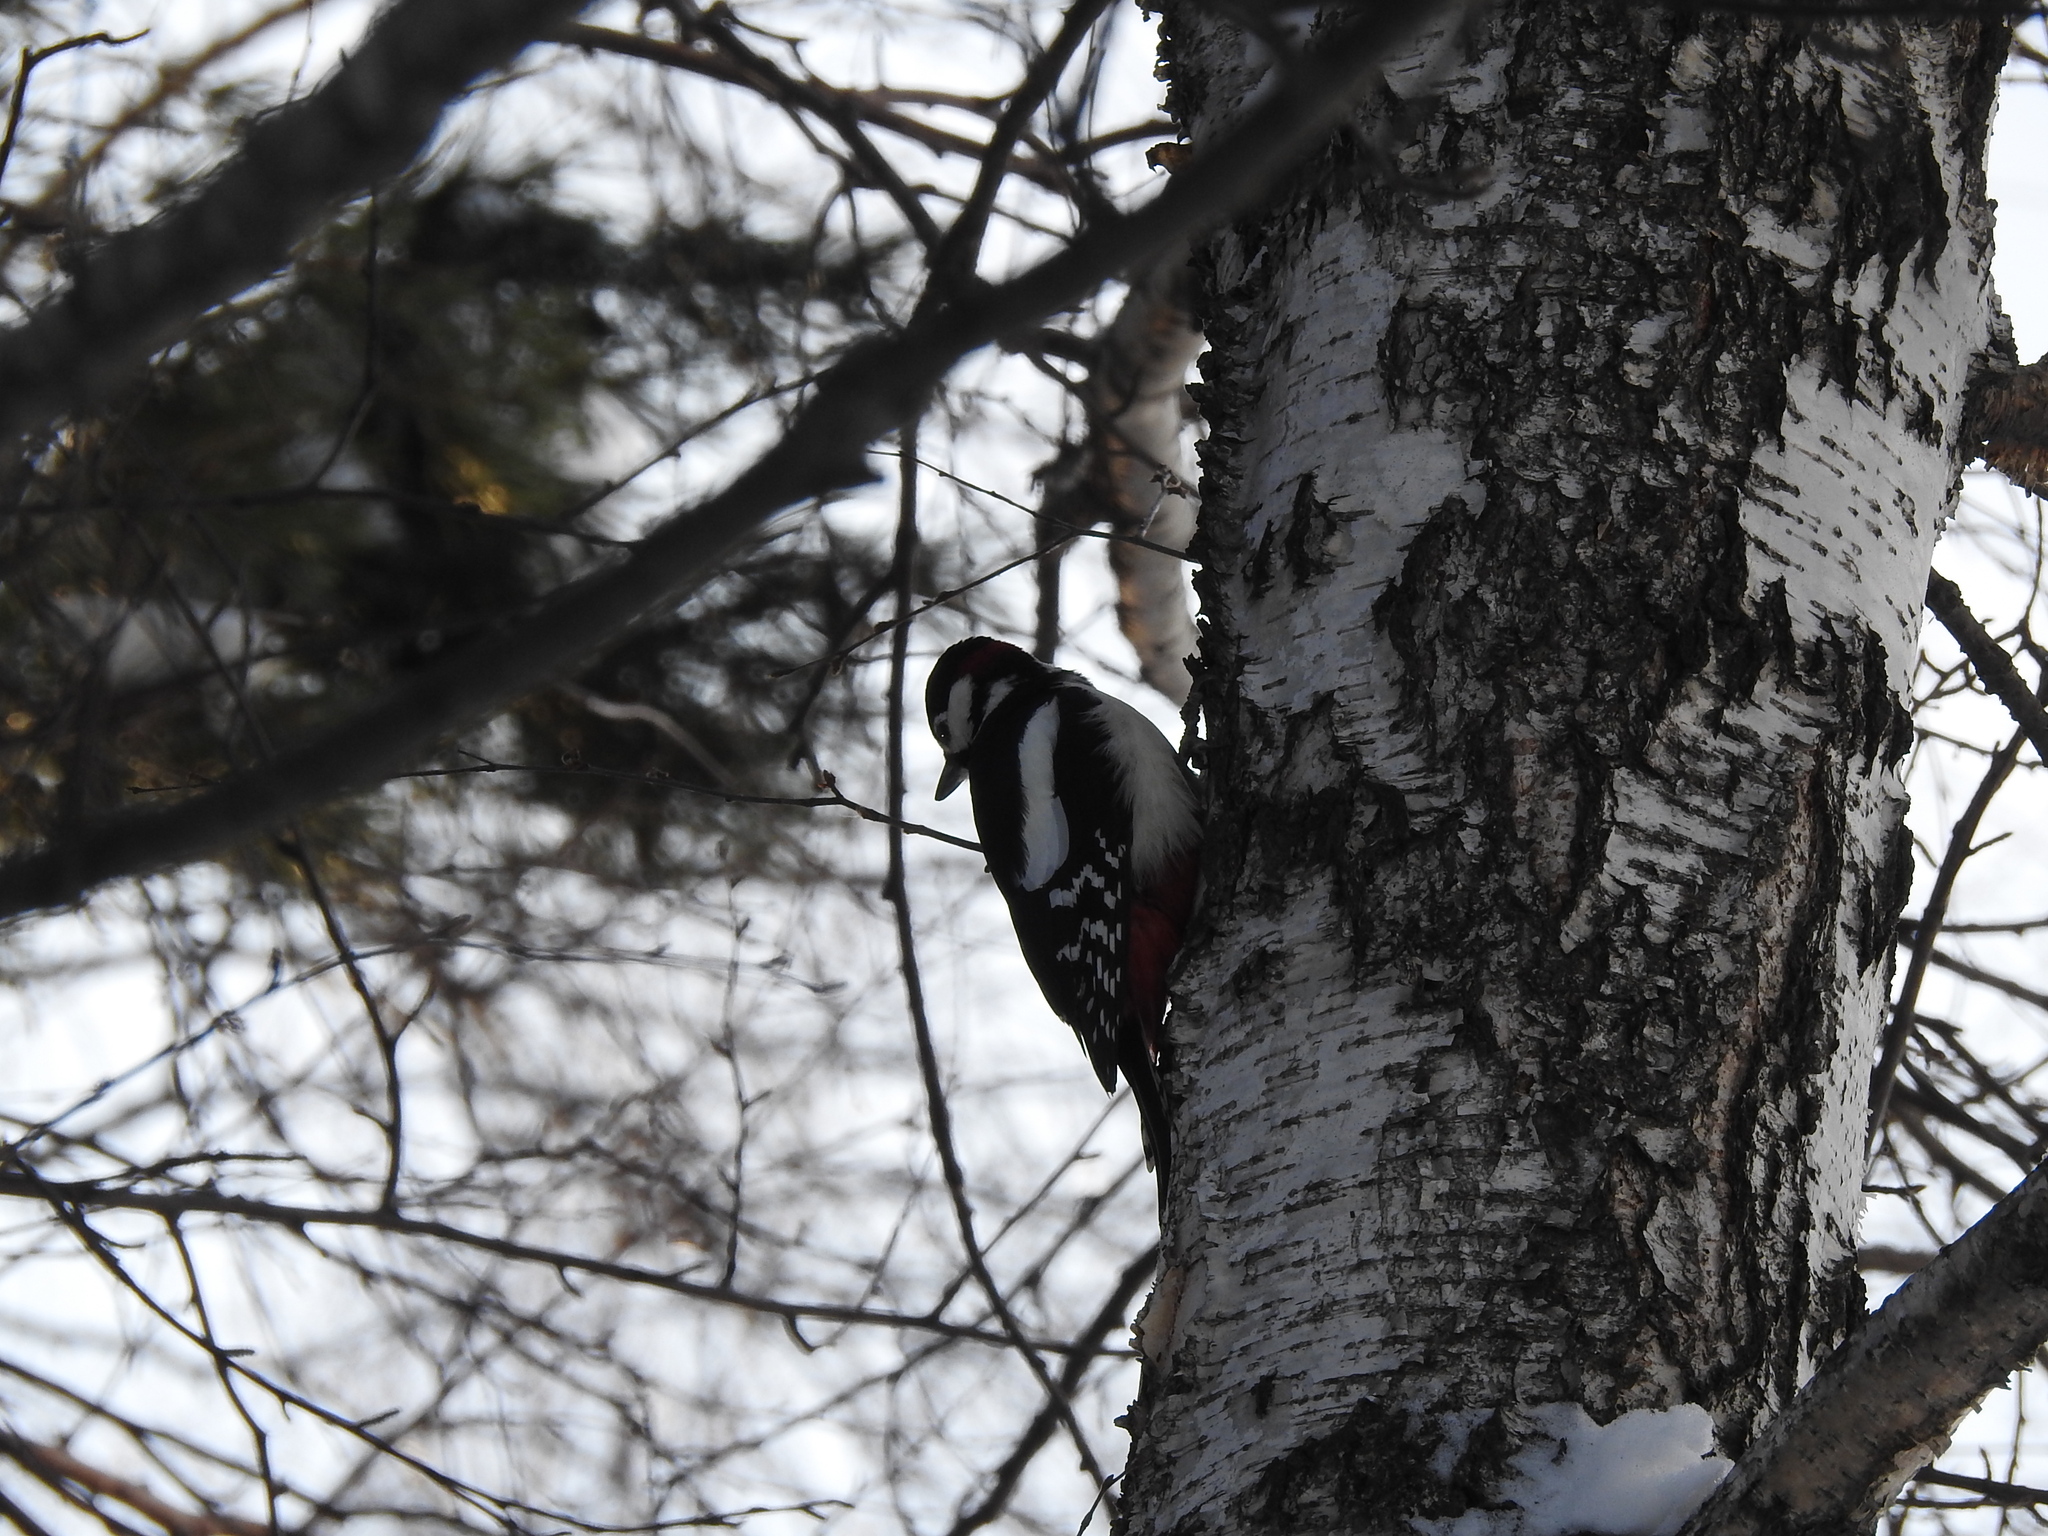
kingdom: Animalia
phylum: Chordata
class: Aves
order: Piciformes
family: Picidae
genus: Dendrocopos
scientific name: Dendrocopos major
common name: Great spotted woodpecker
